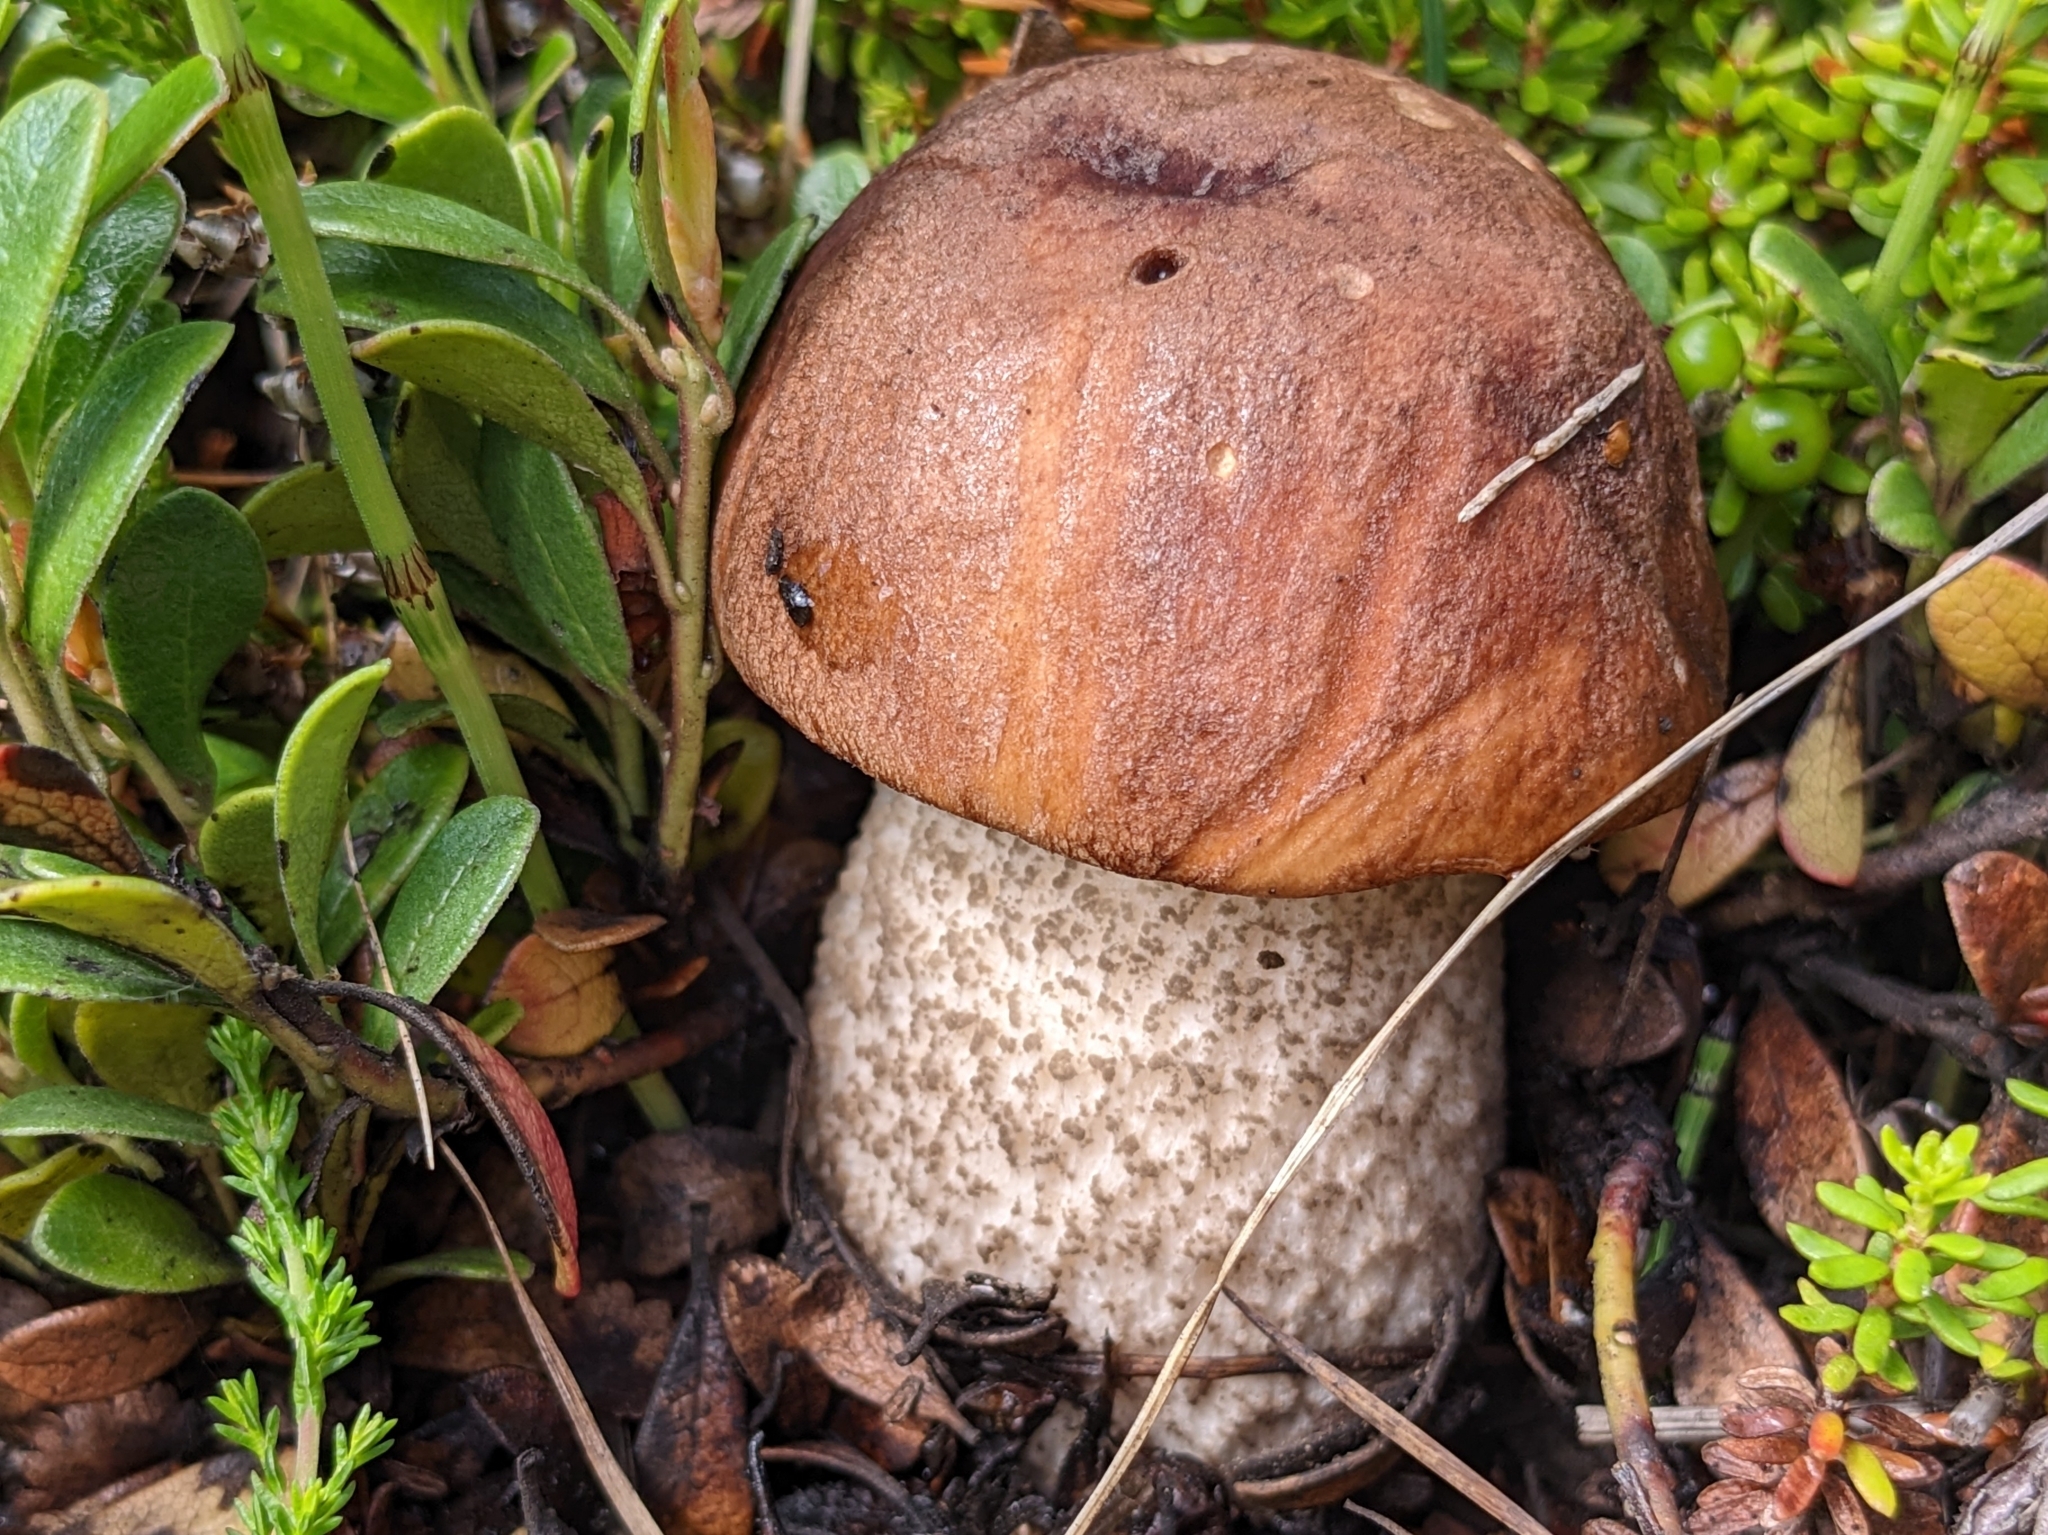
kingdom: Fungi
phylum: Basidiomycota
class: Agaricomycetes
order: Boletales
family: Boletaceae
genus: Leccinum
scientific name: Leccinum scabrum
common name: Blushing bolete
